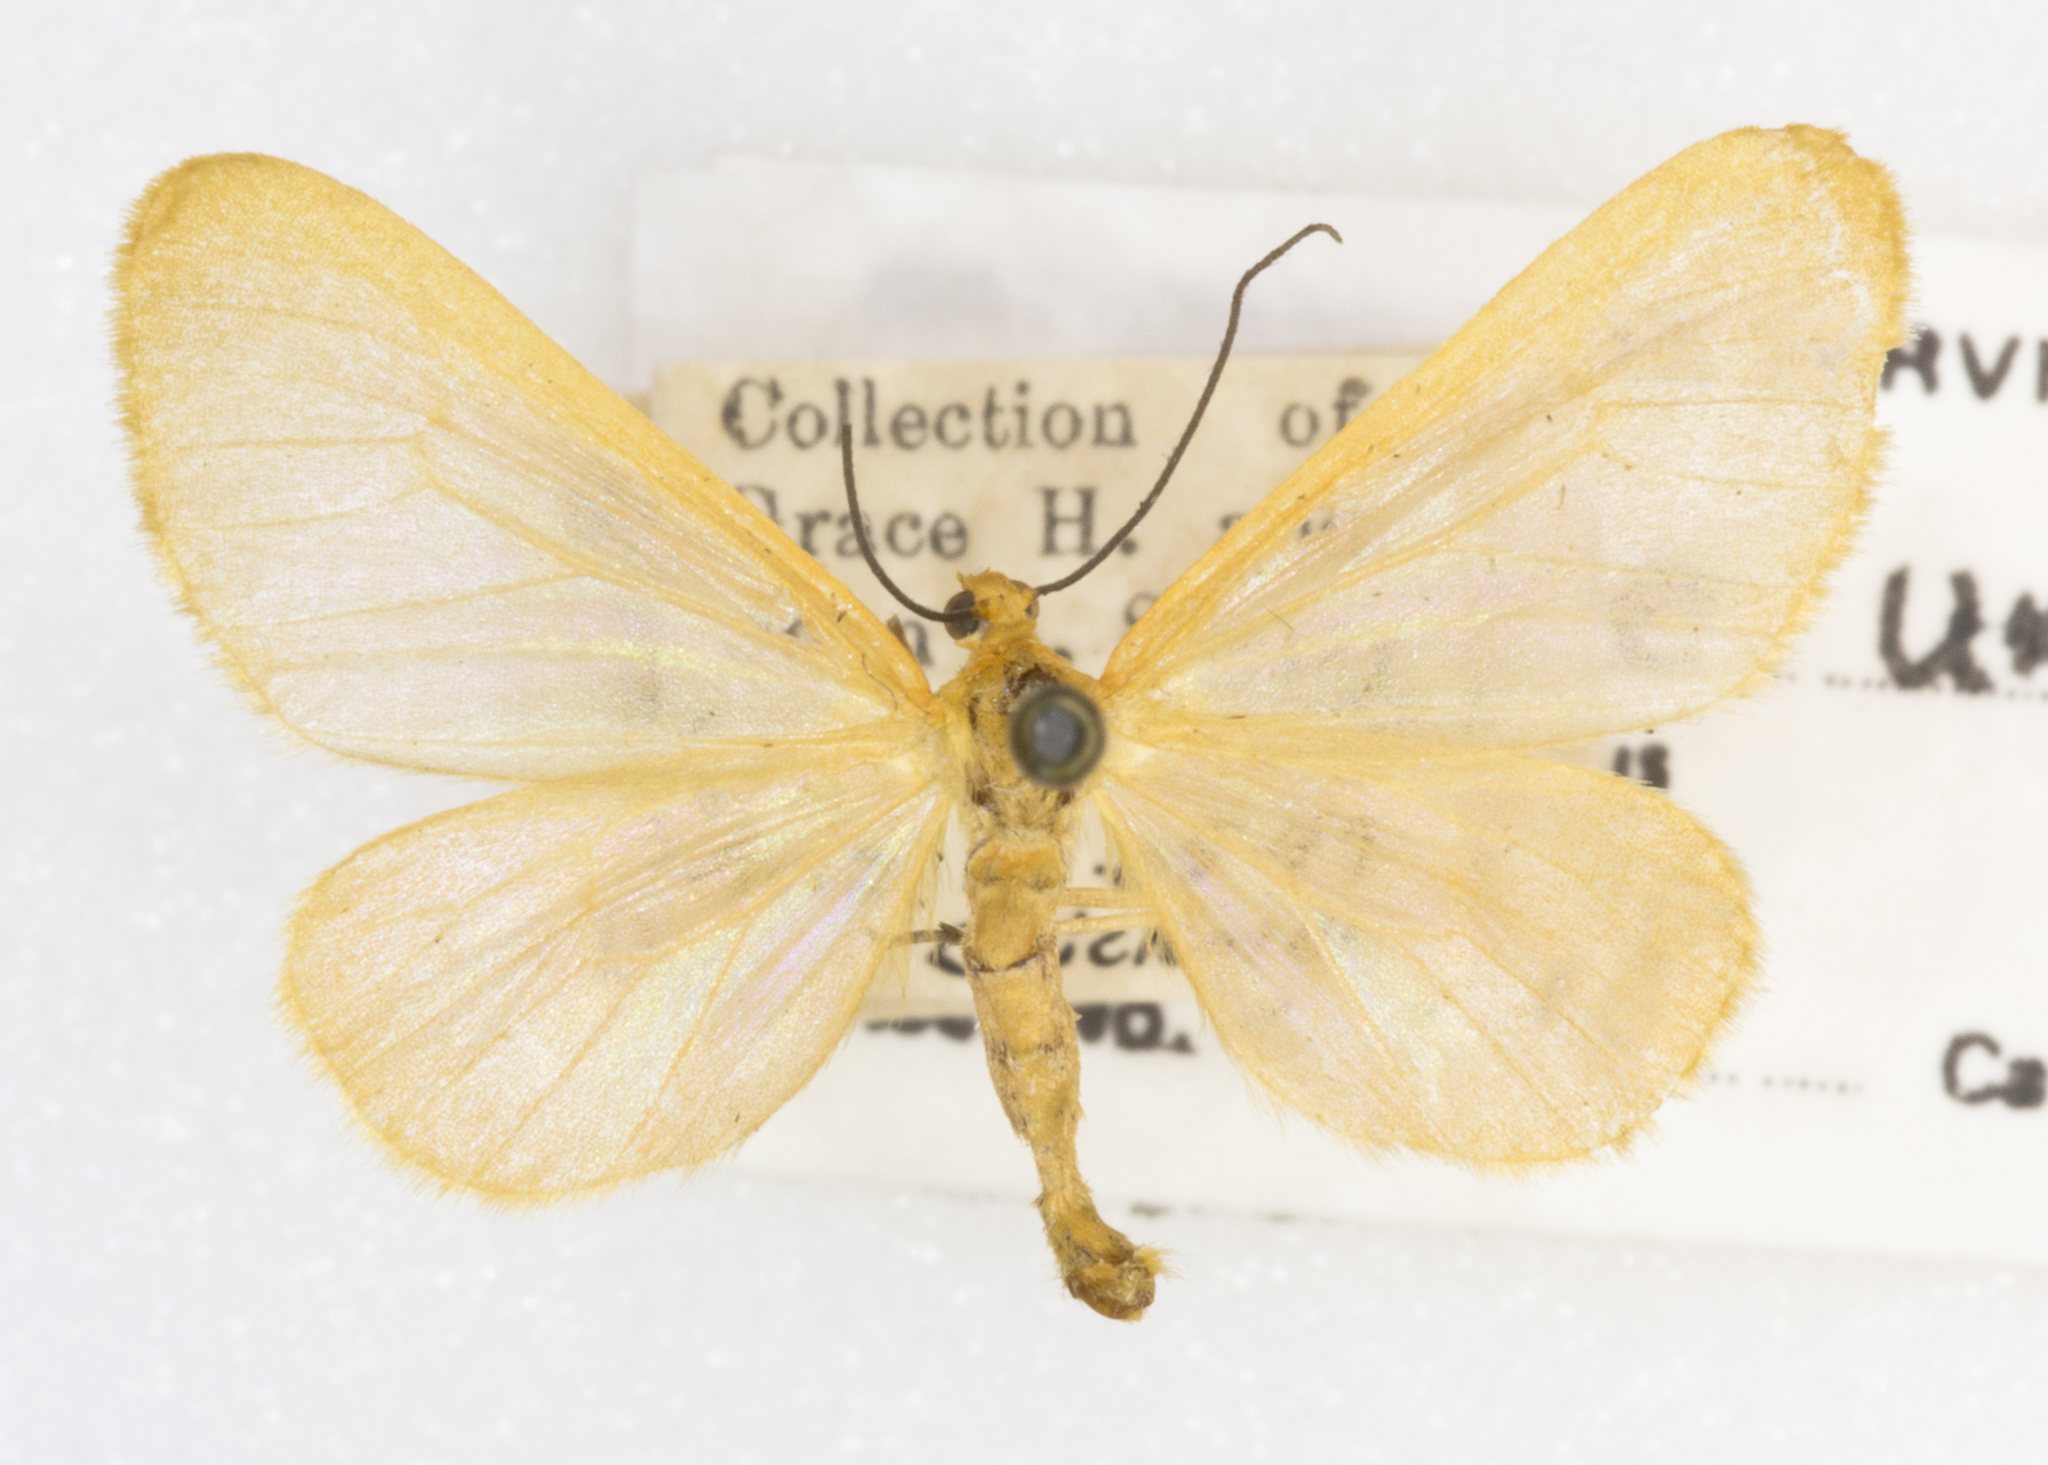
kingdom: Animalia
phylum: Arthropoda
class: Insecta
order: Lepidoptera
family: Geometridae
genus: Eubaphe
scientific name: Eubaphe unicolor
